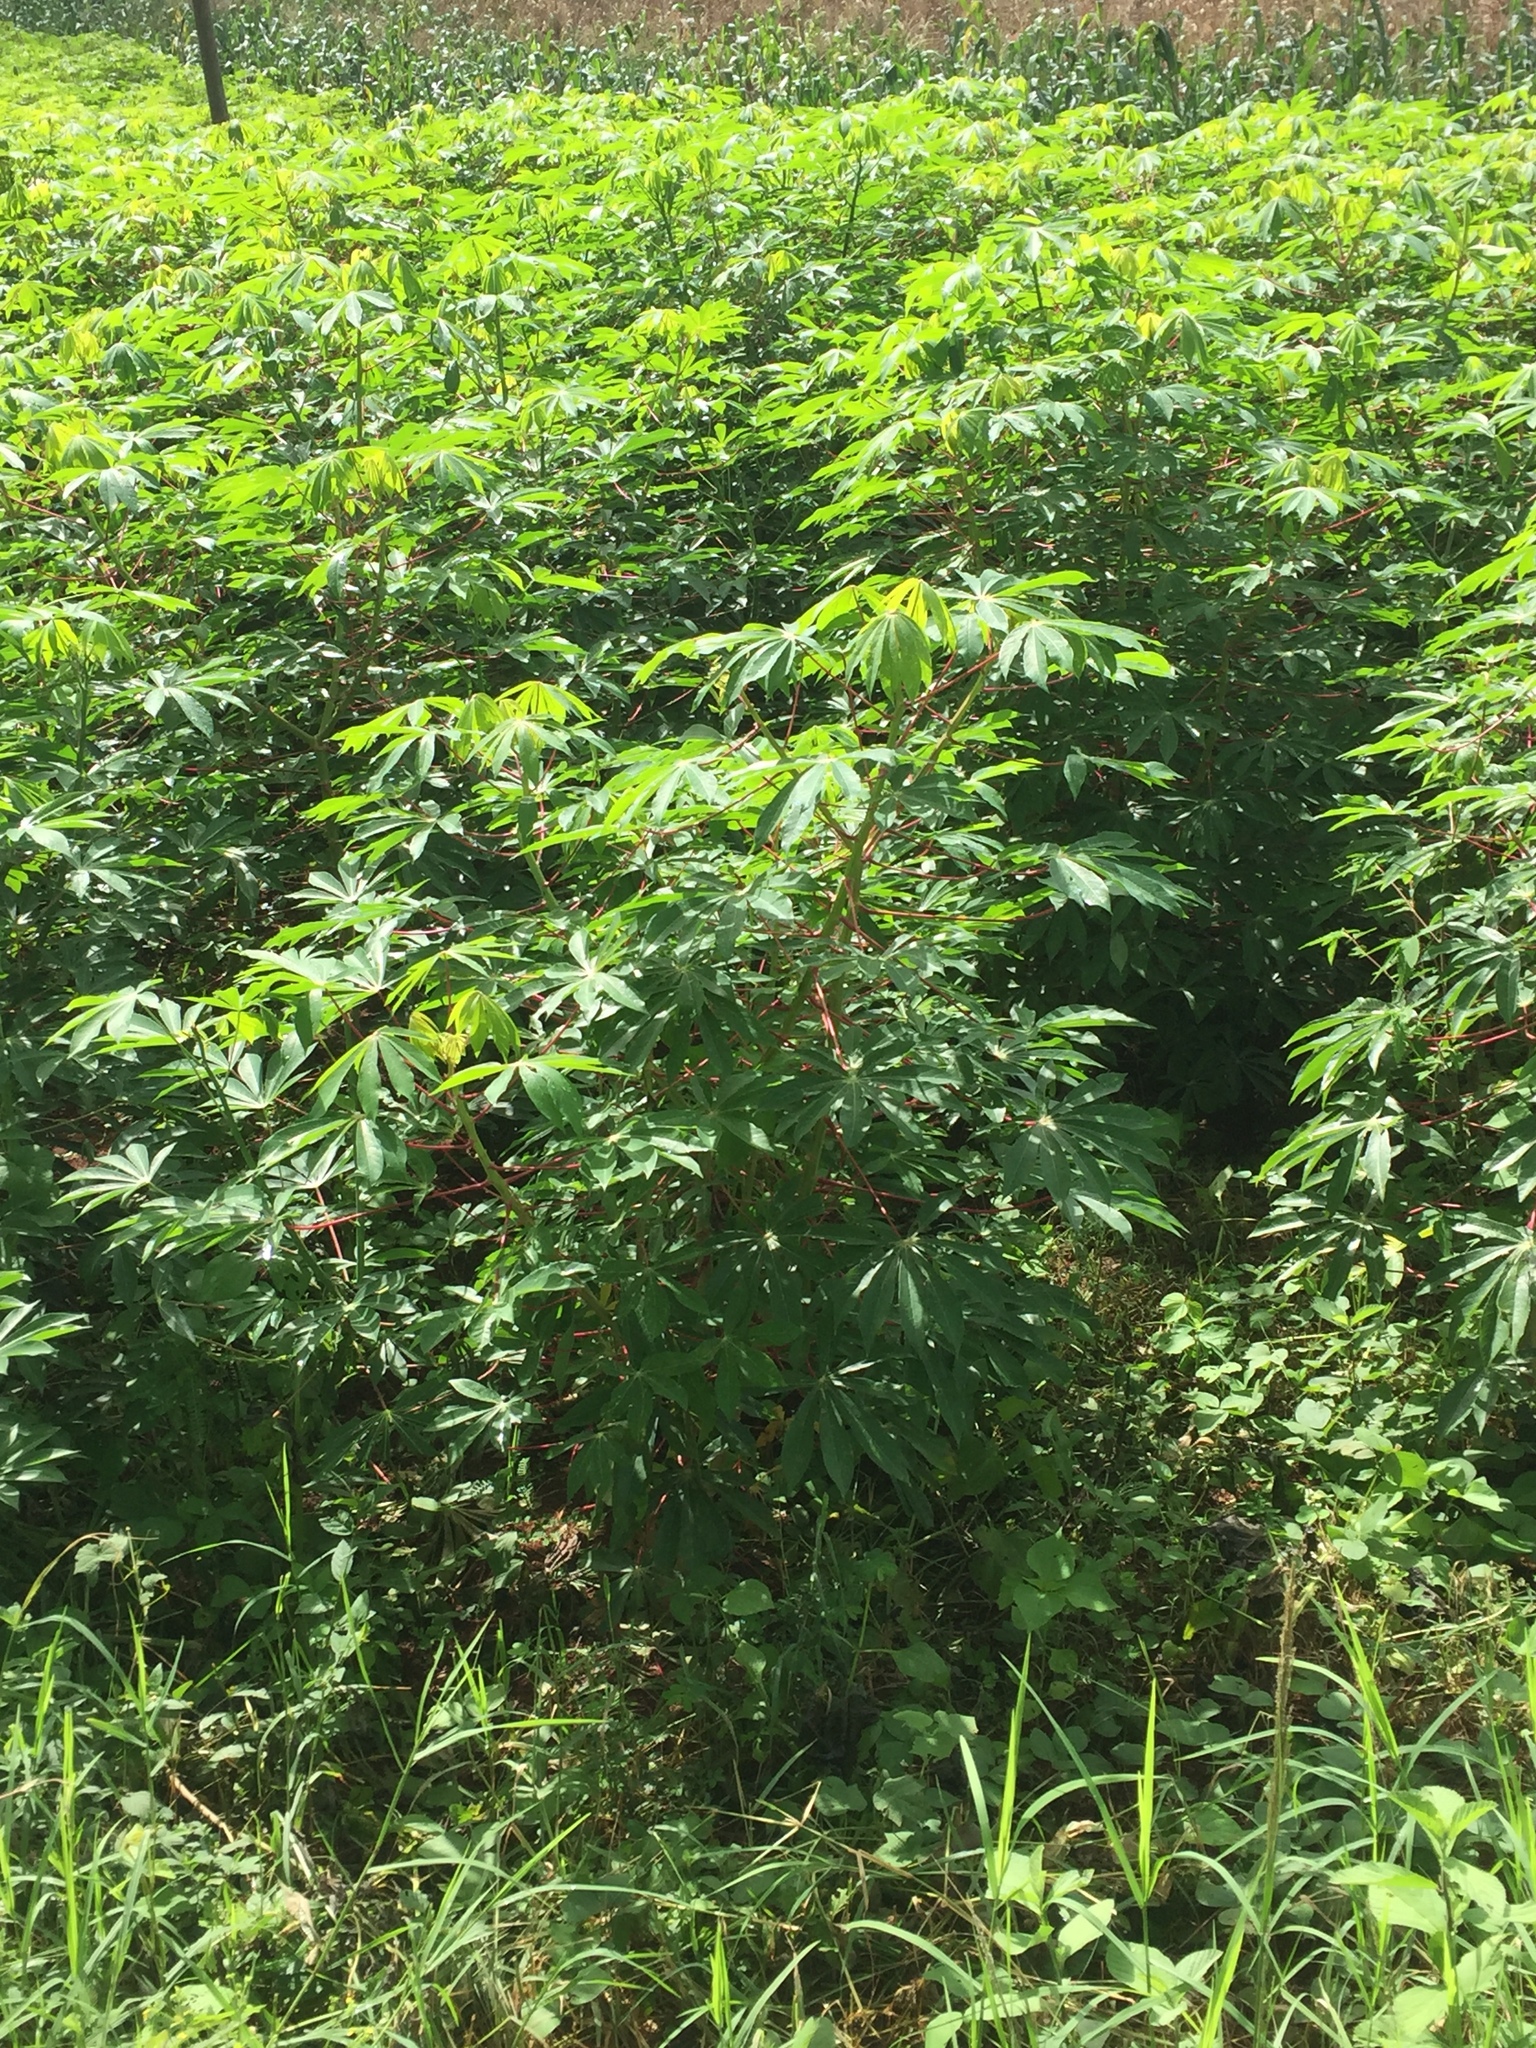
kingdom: Plantae
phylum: Tracheophyta
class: Magnoliopsida
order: Malpighiales
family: Euphorbiaceae
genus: Manihot
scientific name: Manihot esculenta
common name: Cassava
